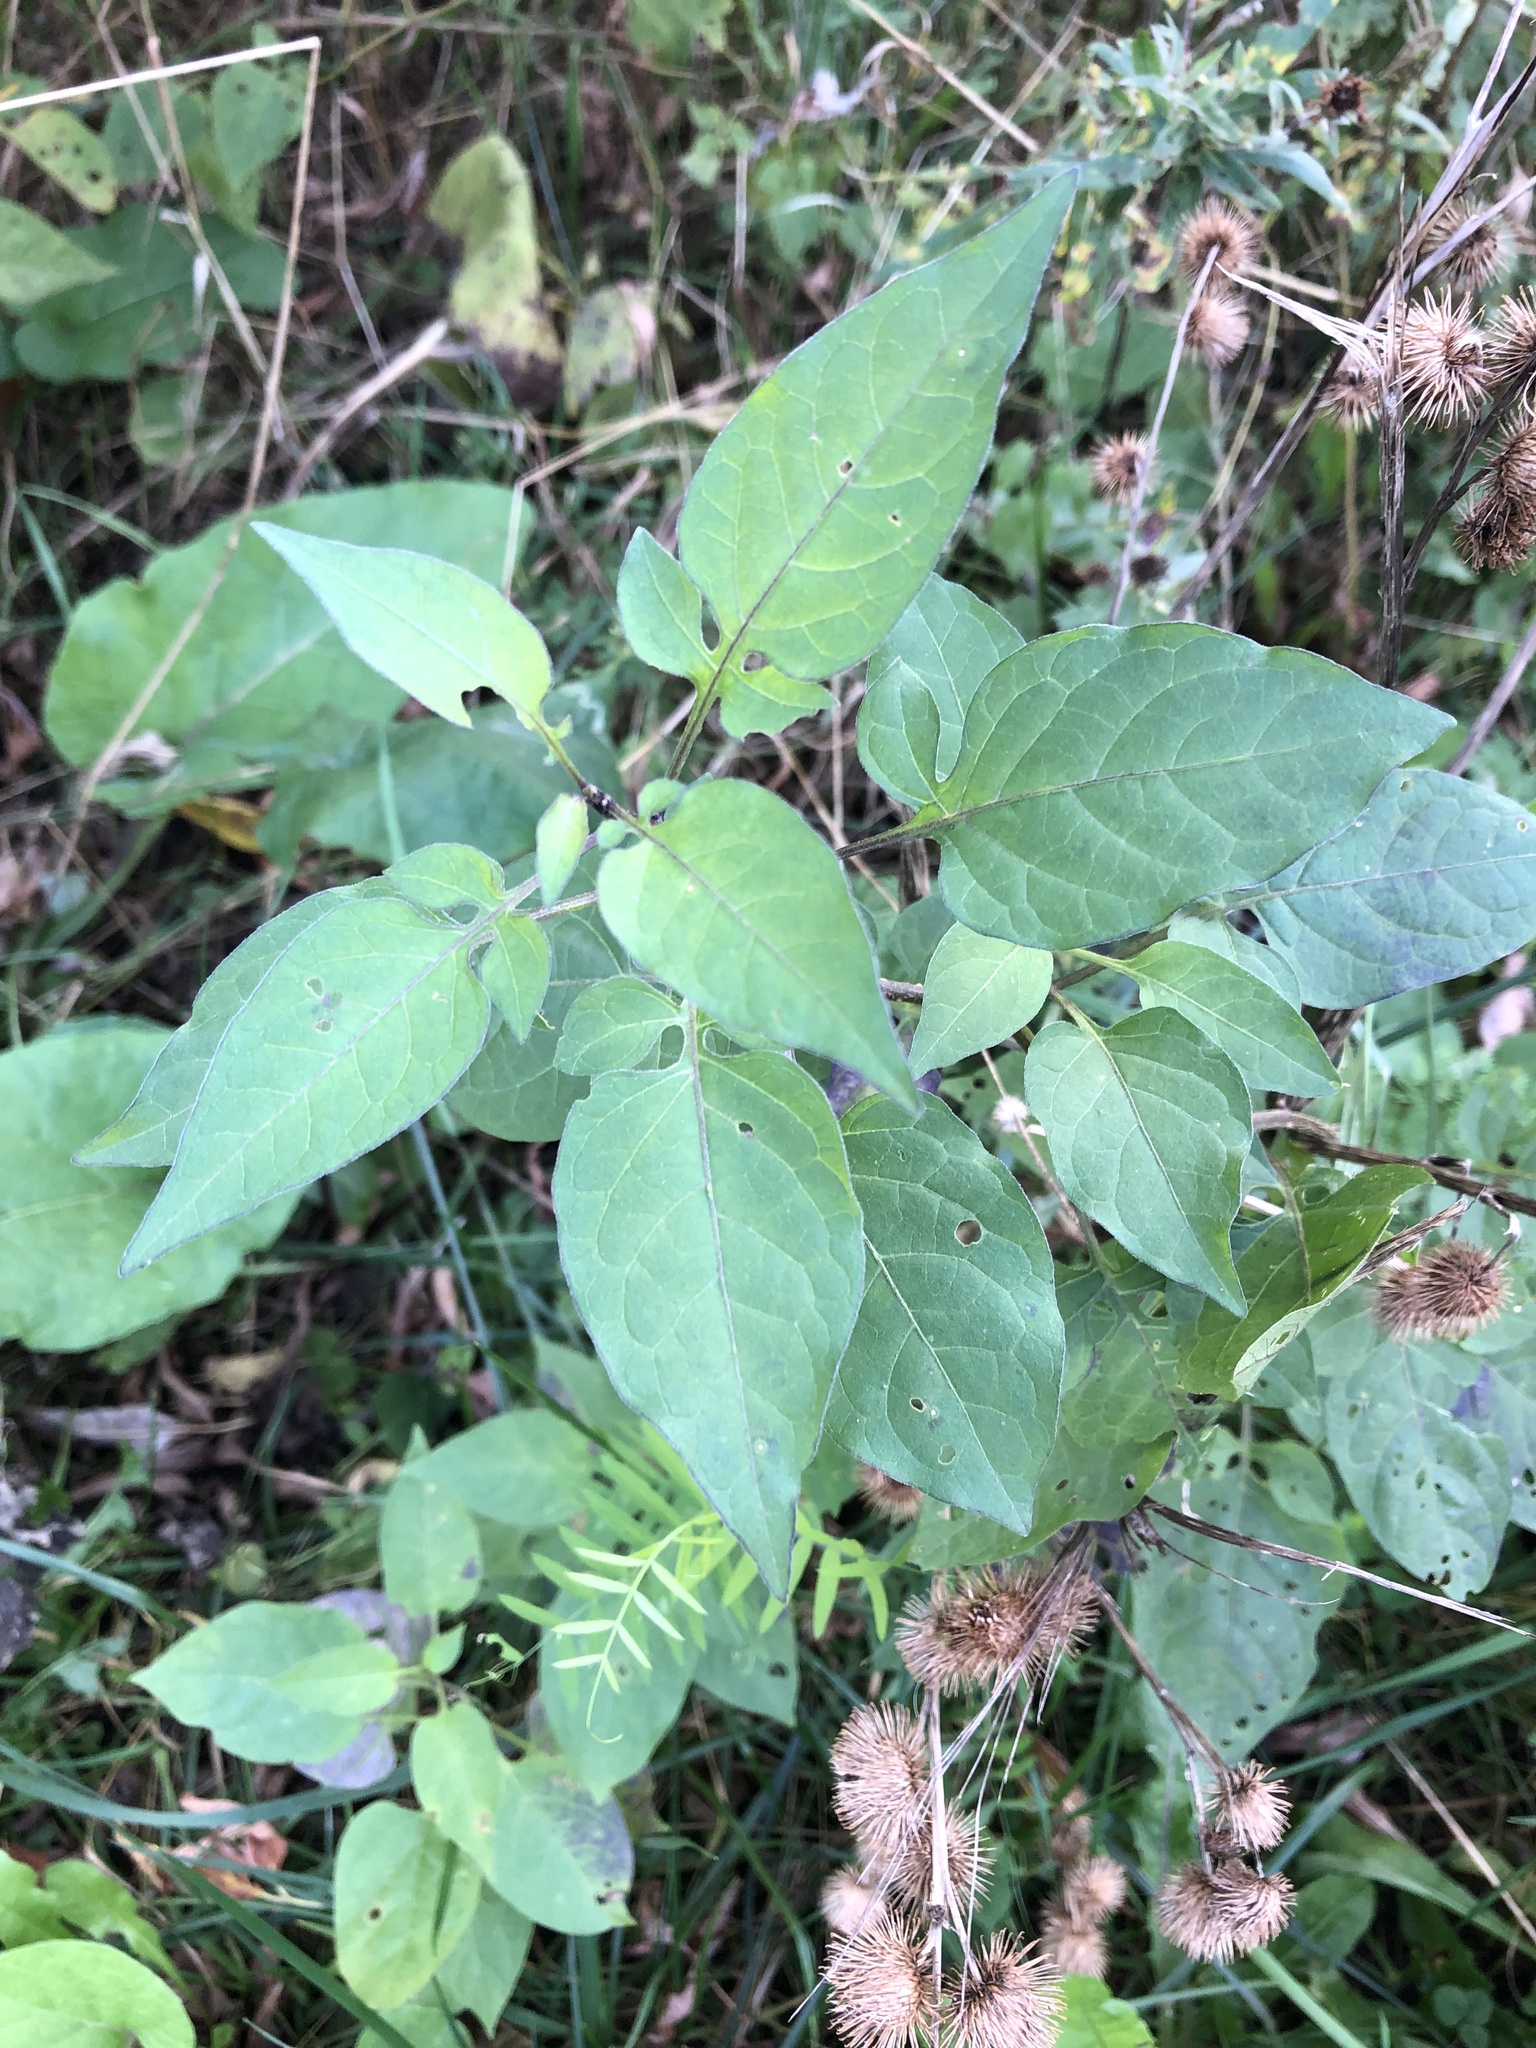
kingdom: Plantae
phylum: Tracheophyta
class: Magnoliopsida
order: Solanales
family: Solanaceae
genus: Solanum
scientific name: Solanum dulcamara
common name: Climbing nightshade
